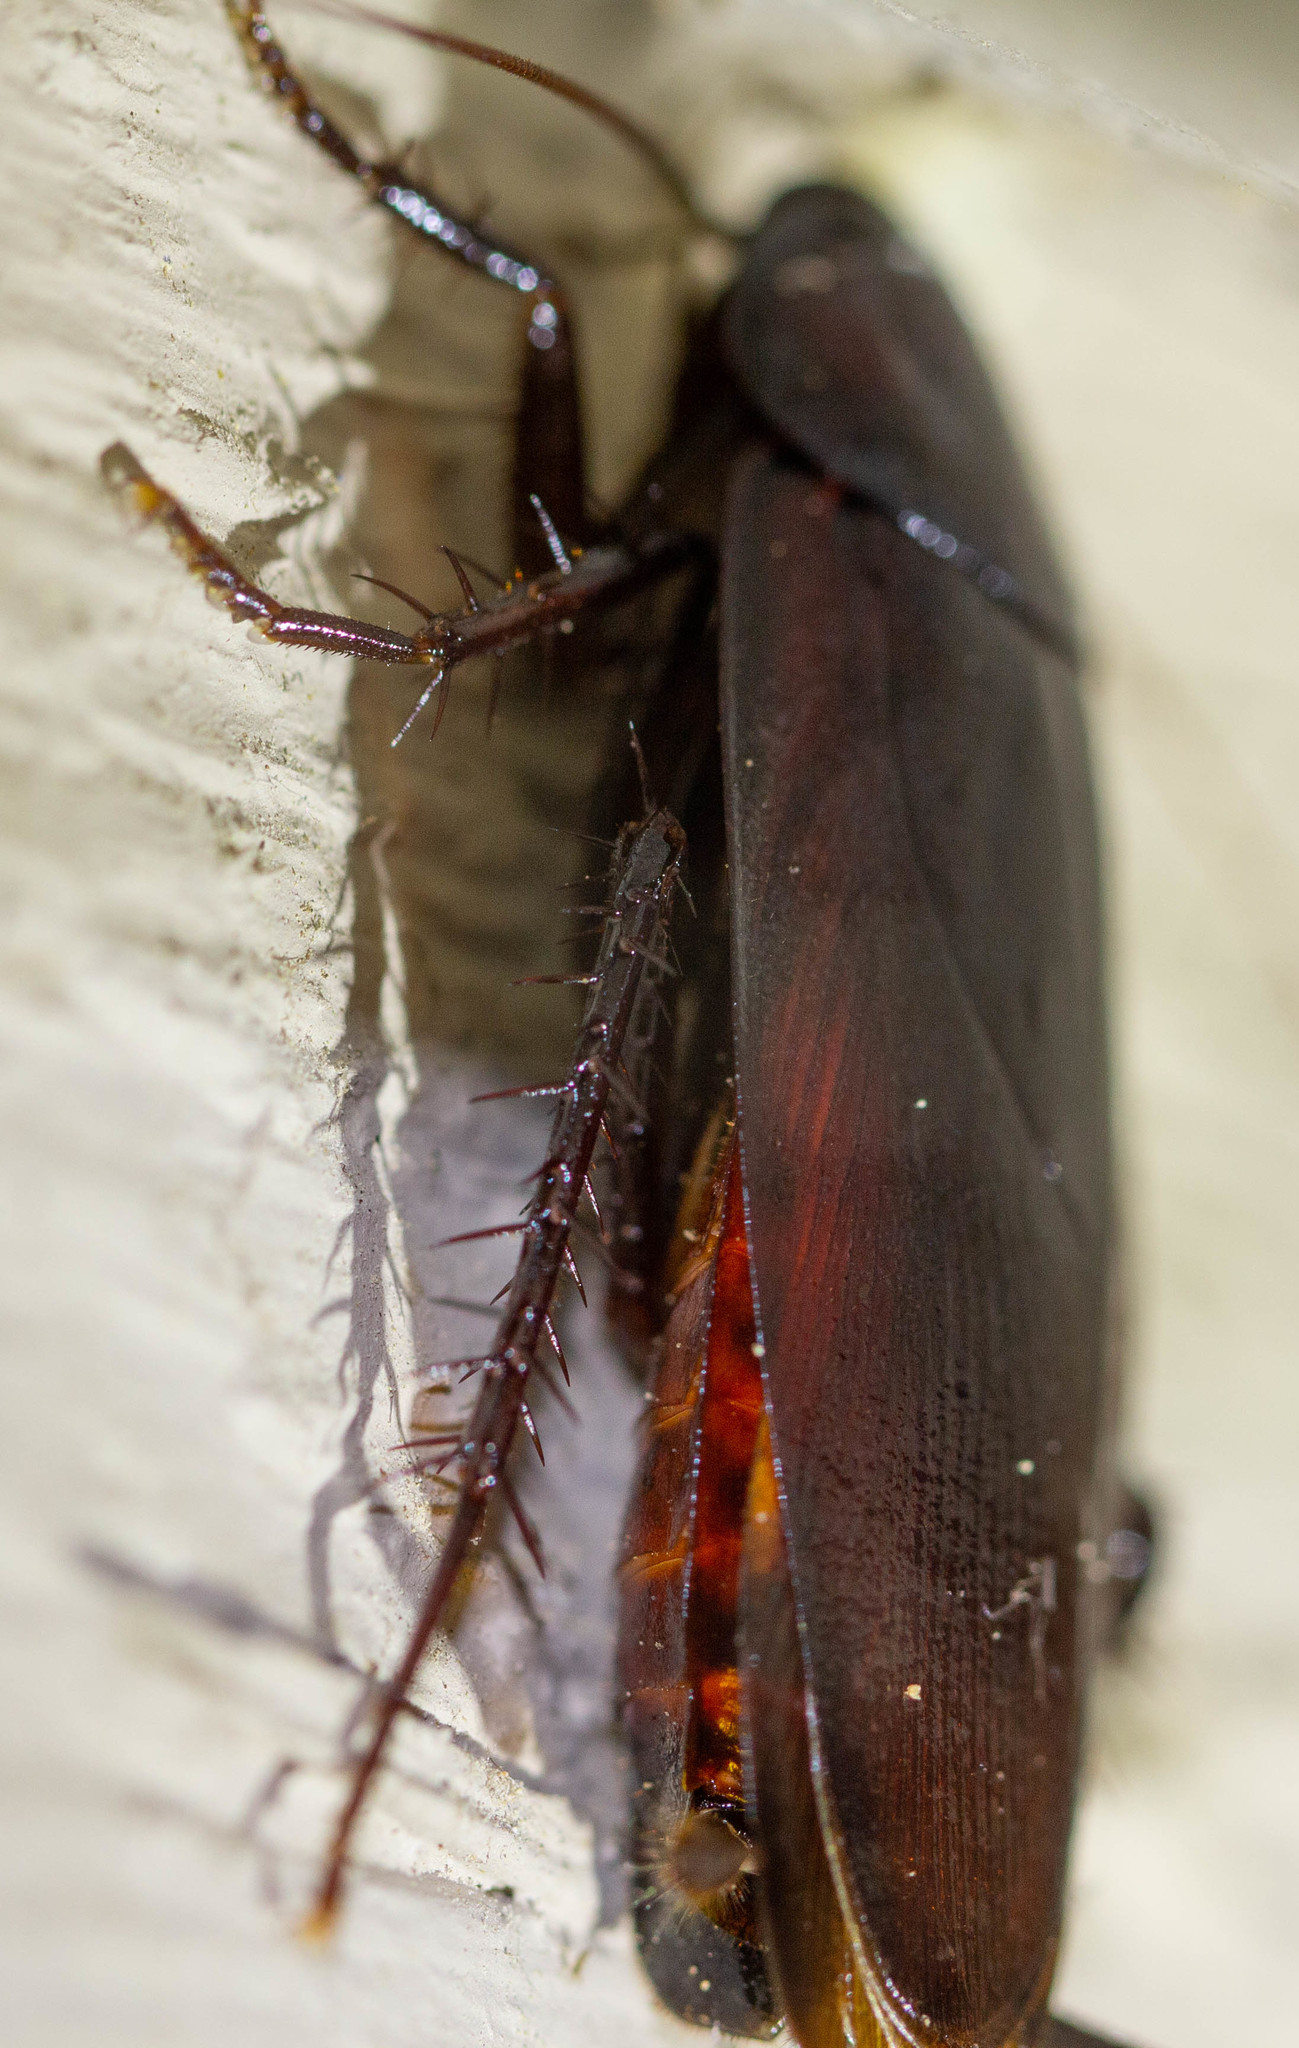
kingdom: Animalia
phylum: Arthropoda
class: Insecta
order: Blattodea
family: Blattidae
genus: Periplaneta
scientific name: Periplaneta fuliginosa
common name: Smokeybrown cockroad
